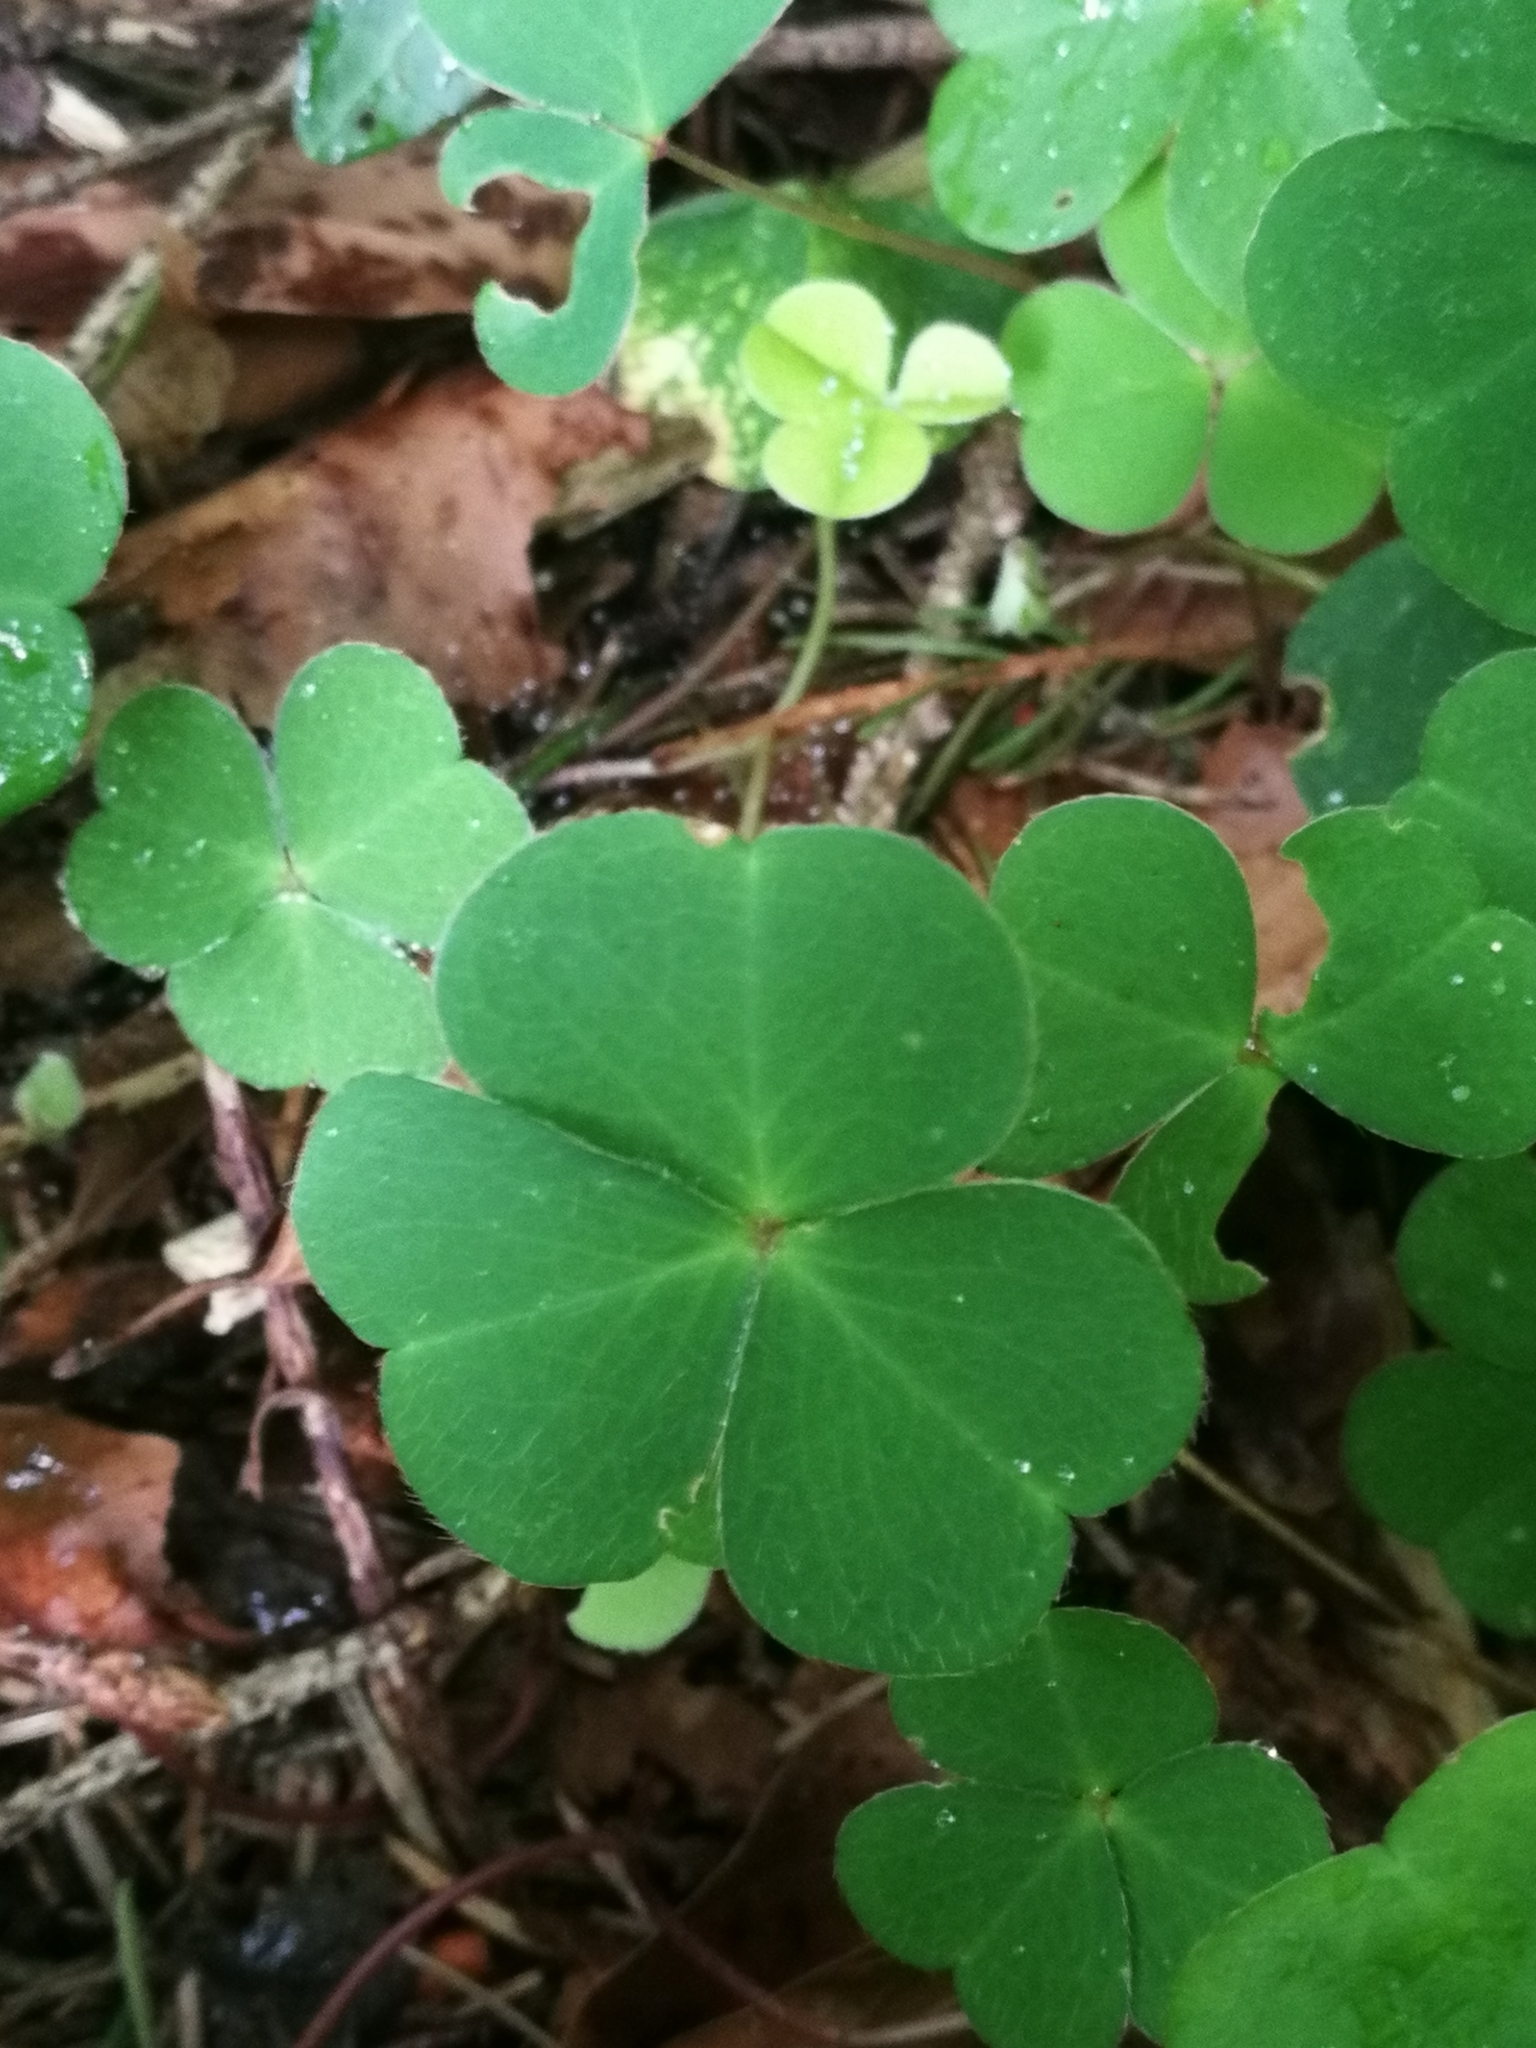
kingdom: Plantae
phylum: Tracheophyta
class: Magnoliopsida
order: Oxalidales
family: Oxalidaceae
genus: Oxalis
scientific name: Oxalis acetosella
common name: Wood-sorrel
